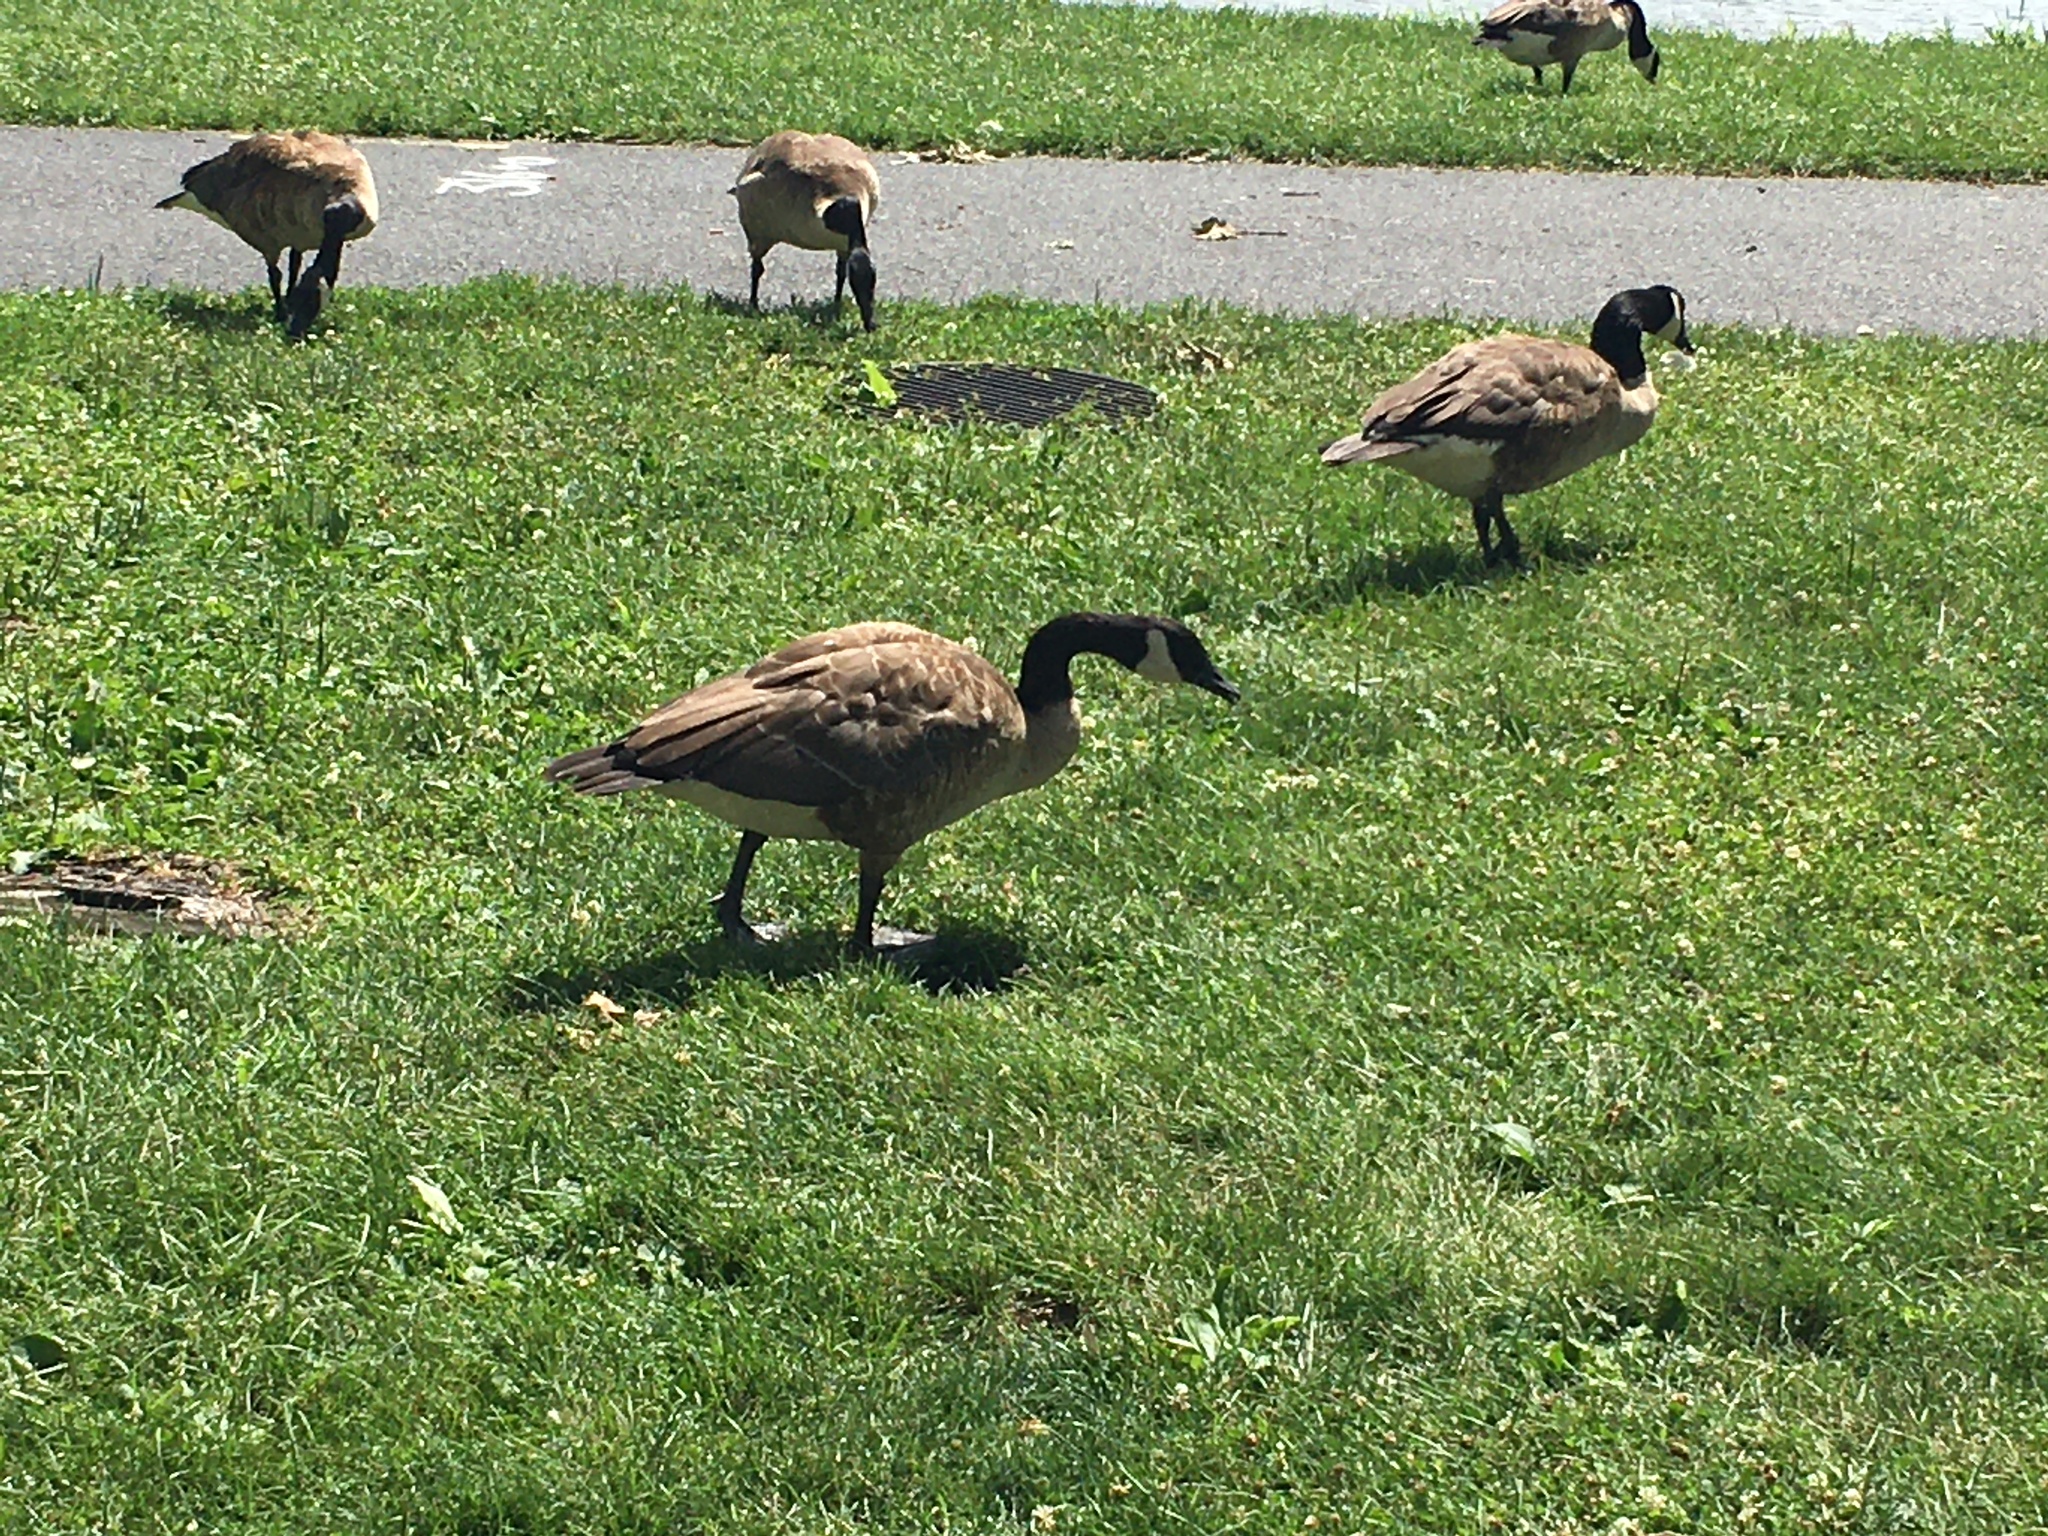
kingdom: Animalia
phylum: Chordata
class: Aves
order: Anseriformes
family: Anatidae
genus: Branta
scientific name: Branta canadensis
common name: Canada goose
